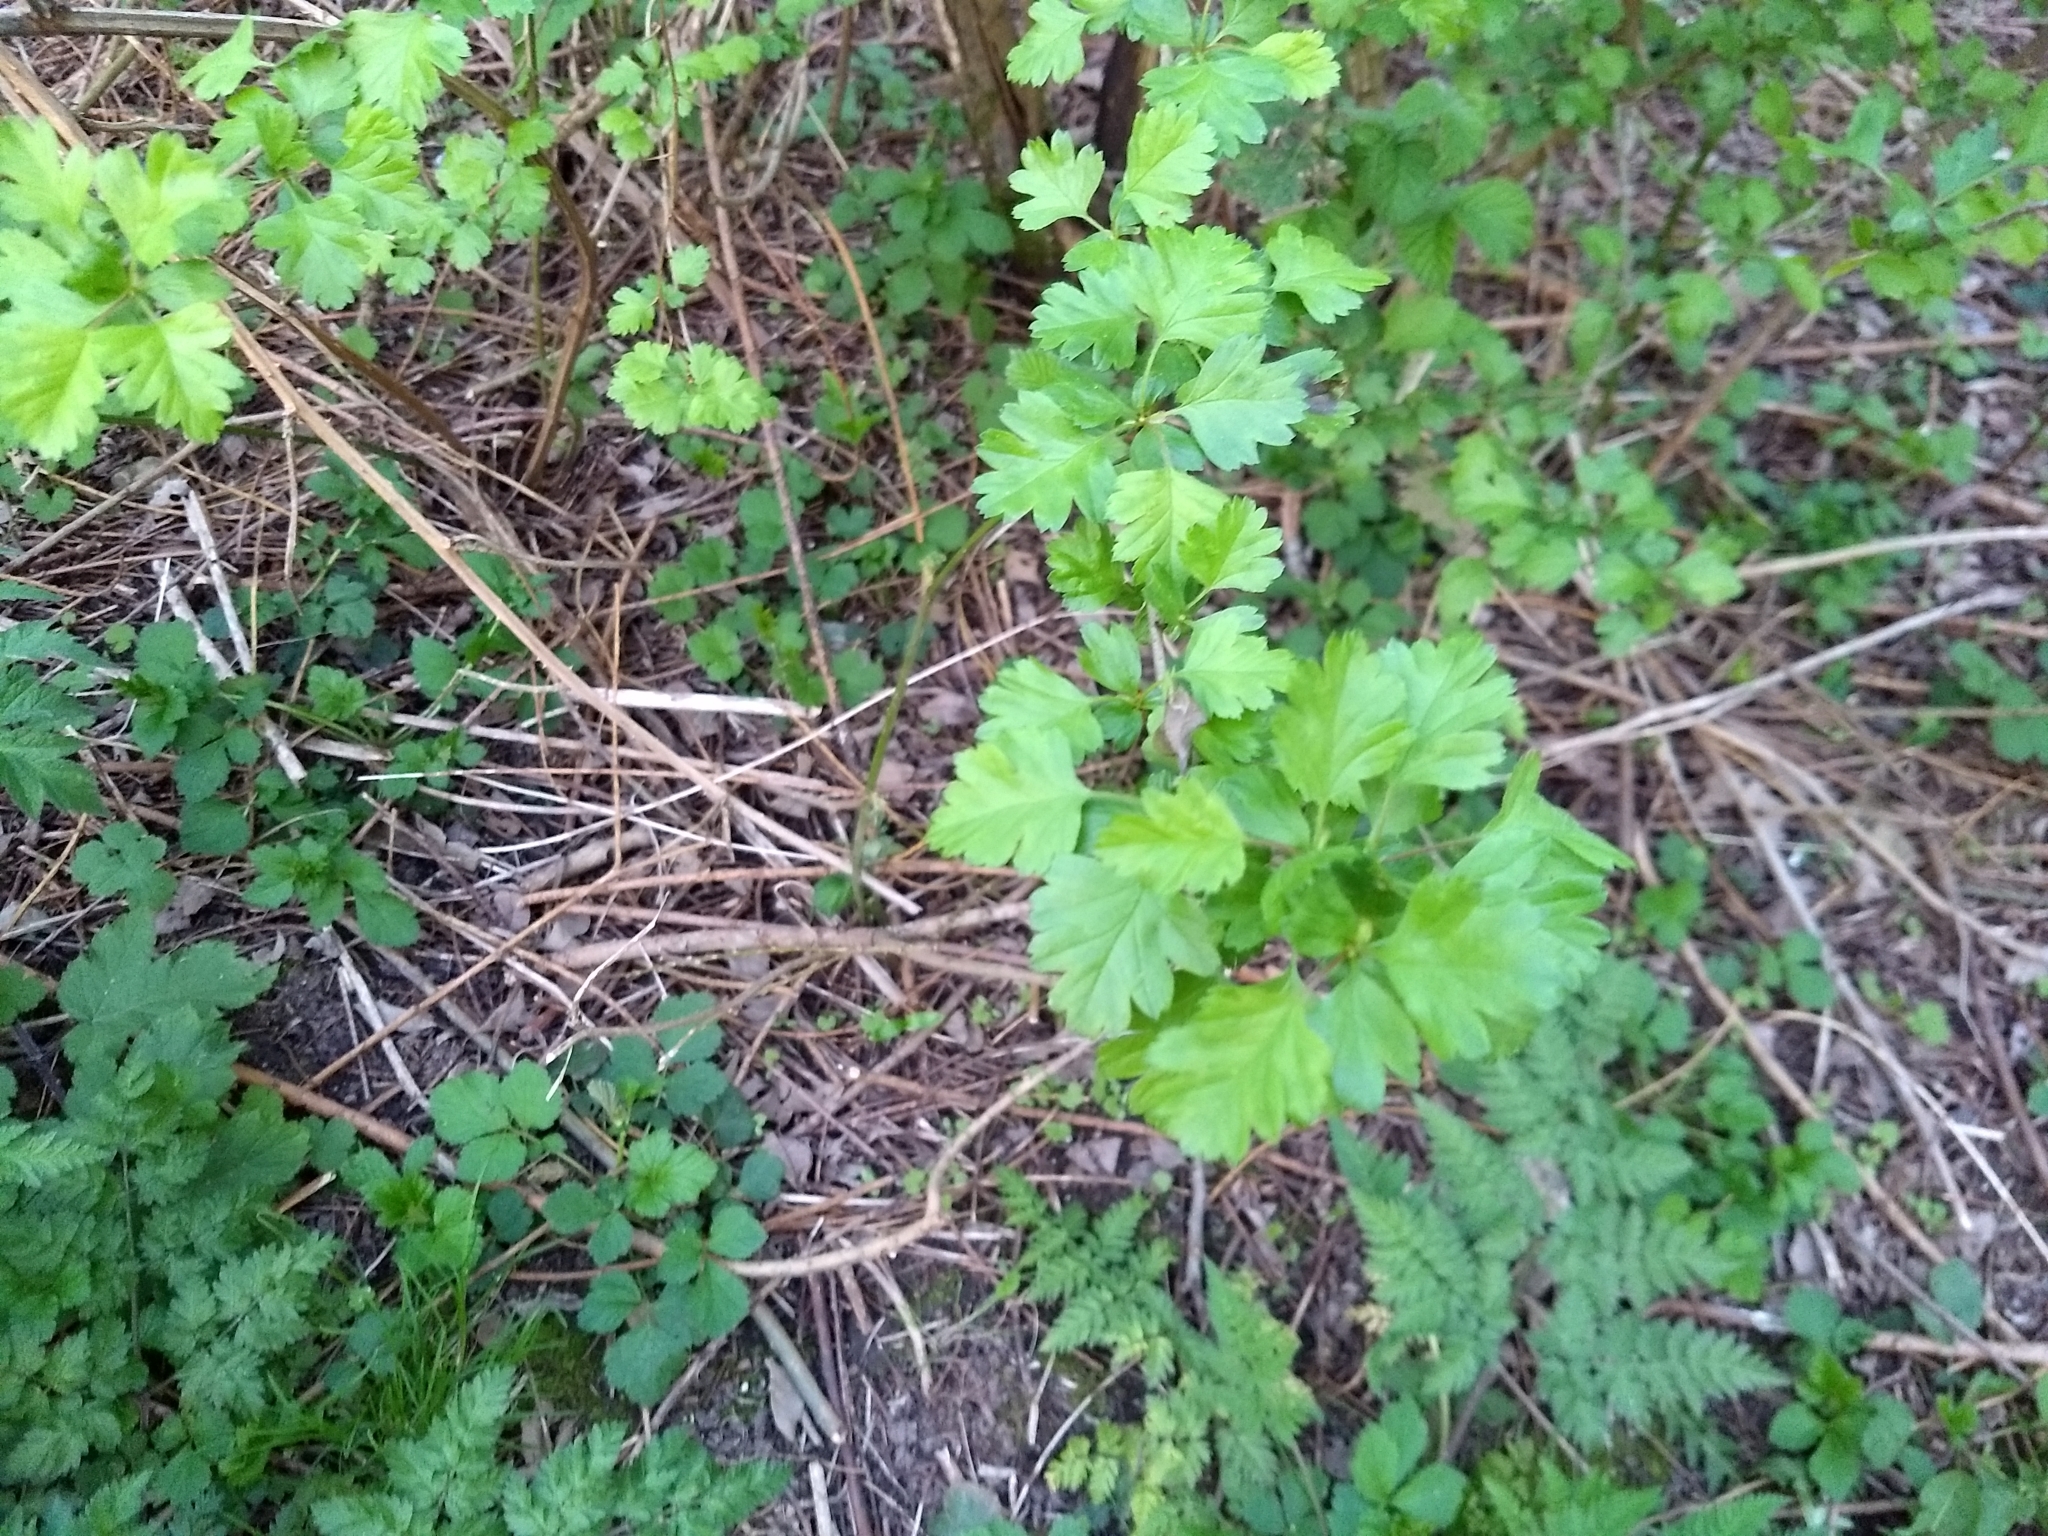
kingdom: Plantae
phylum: Tracheophyta
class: Magnoliopsida
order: Rosales
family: Rosaceae
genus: Crataegus
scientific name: Crataegus monogyna
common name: Hawthorn
